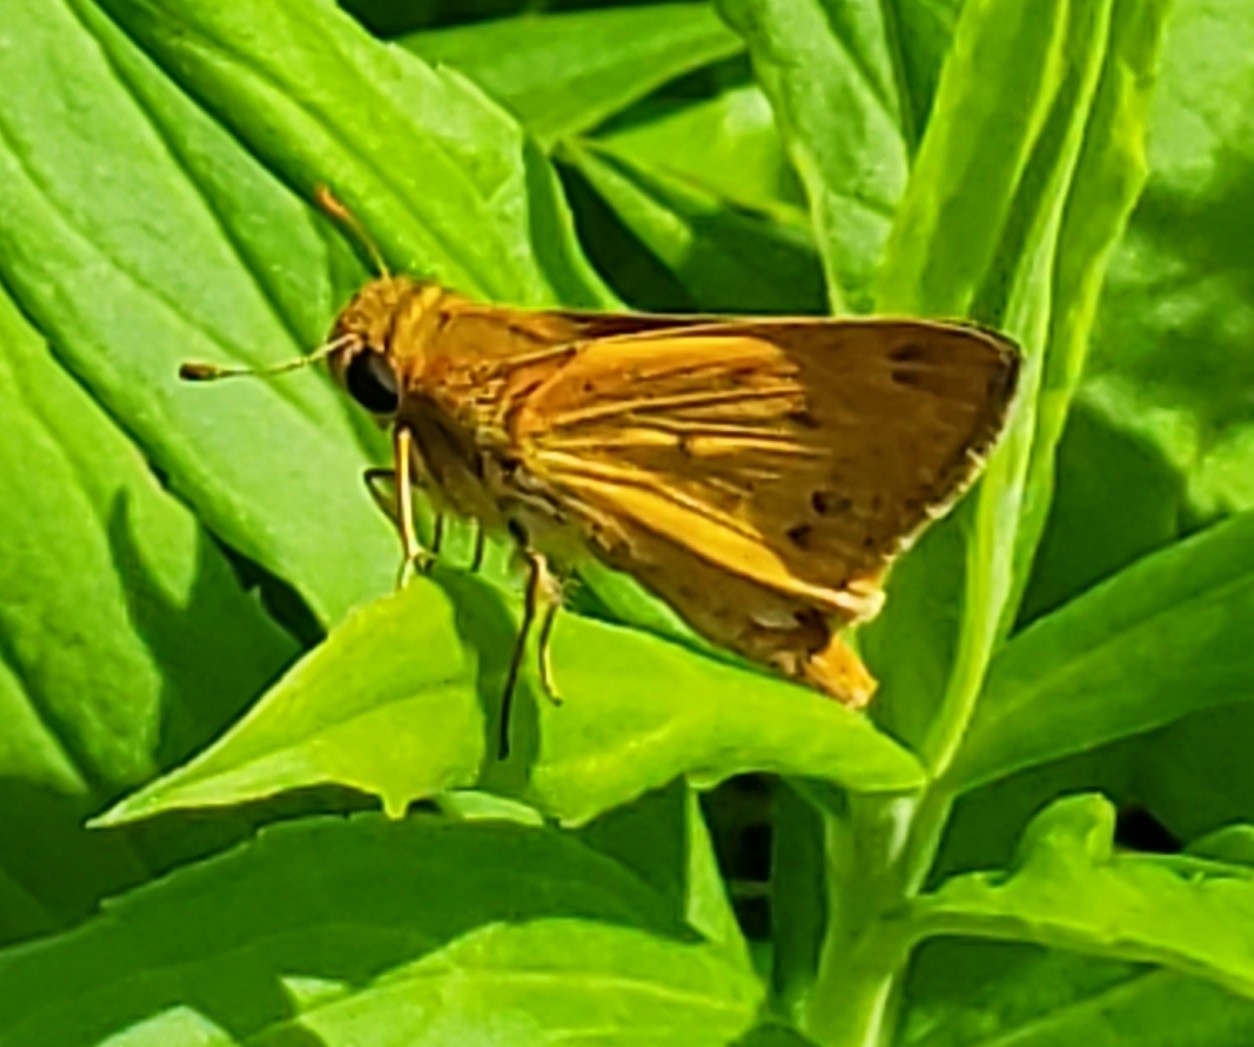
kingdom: Animalia
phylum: Arthropoda
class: Insecta
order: Lepidoptera
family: Hesperiidae
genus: Hylephila
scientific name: Hylephila phyleus
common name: Fiery skipper
